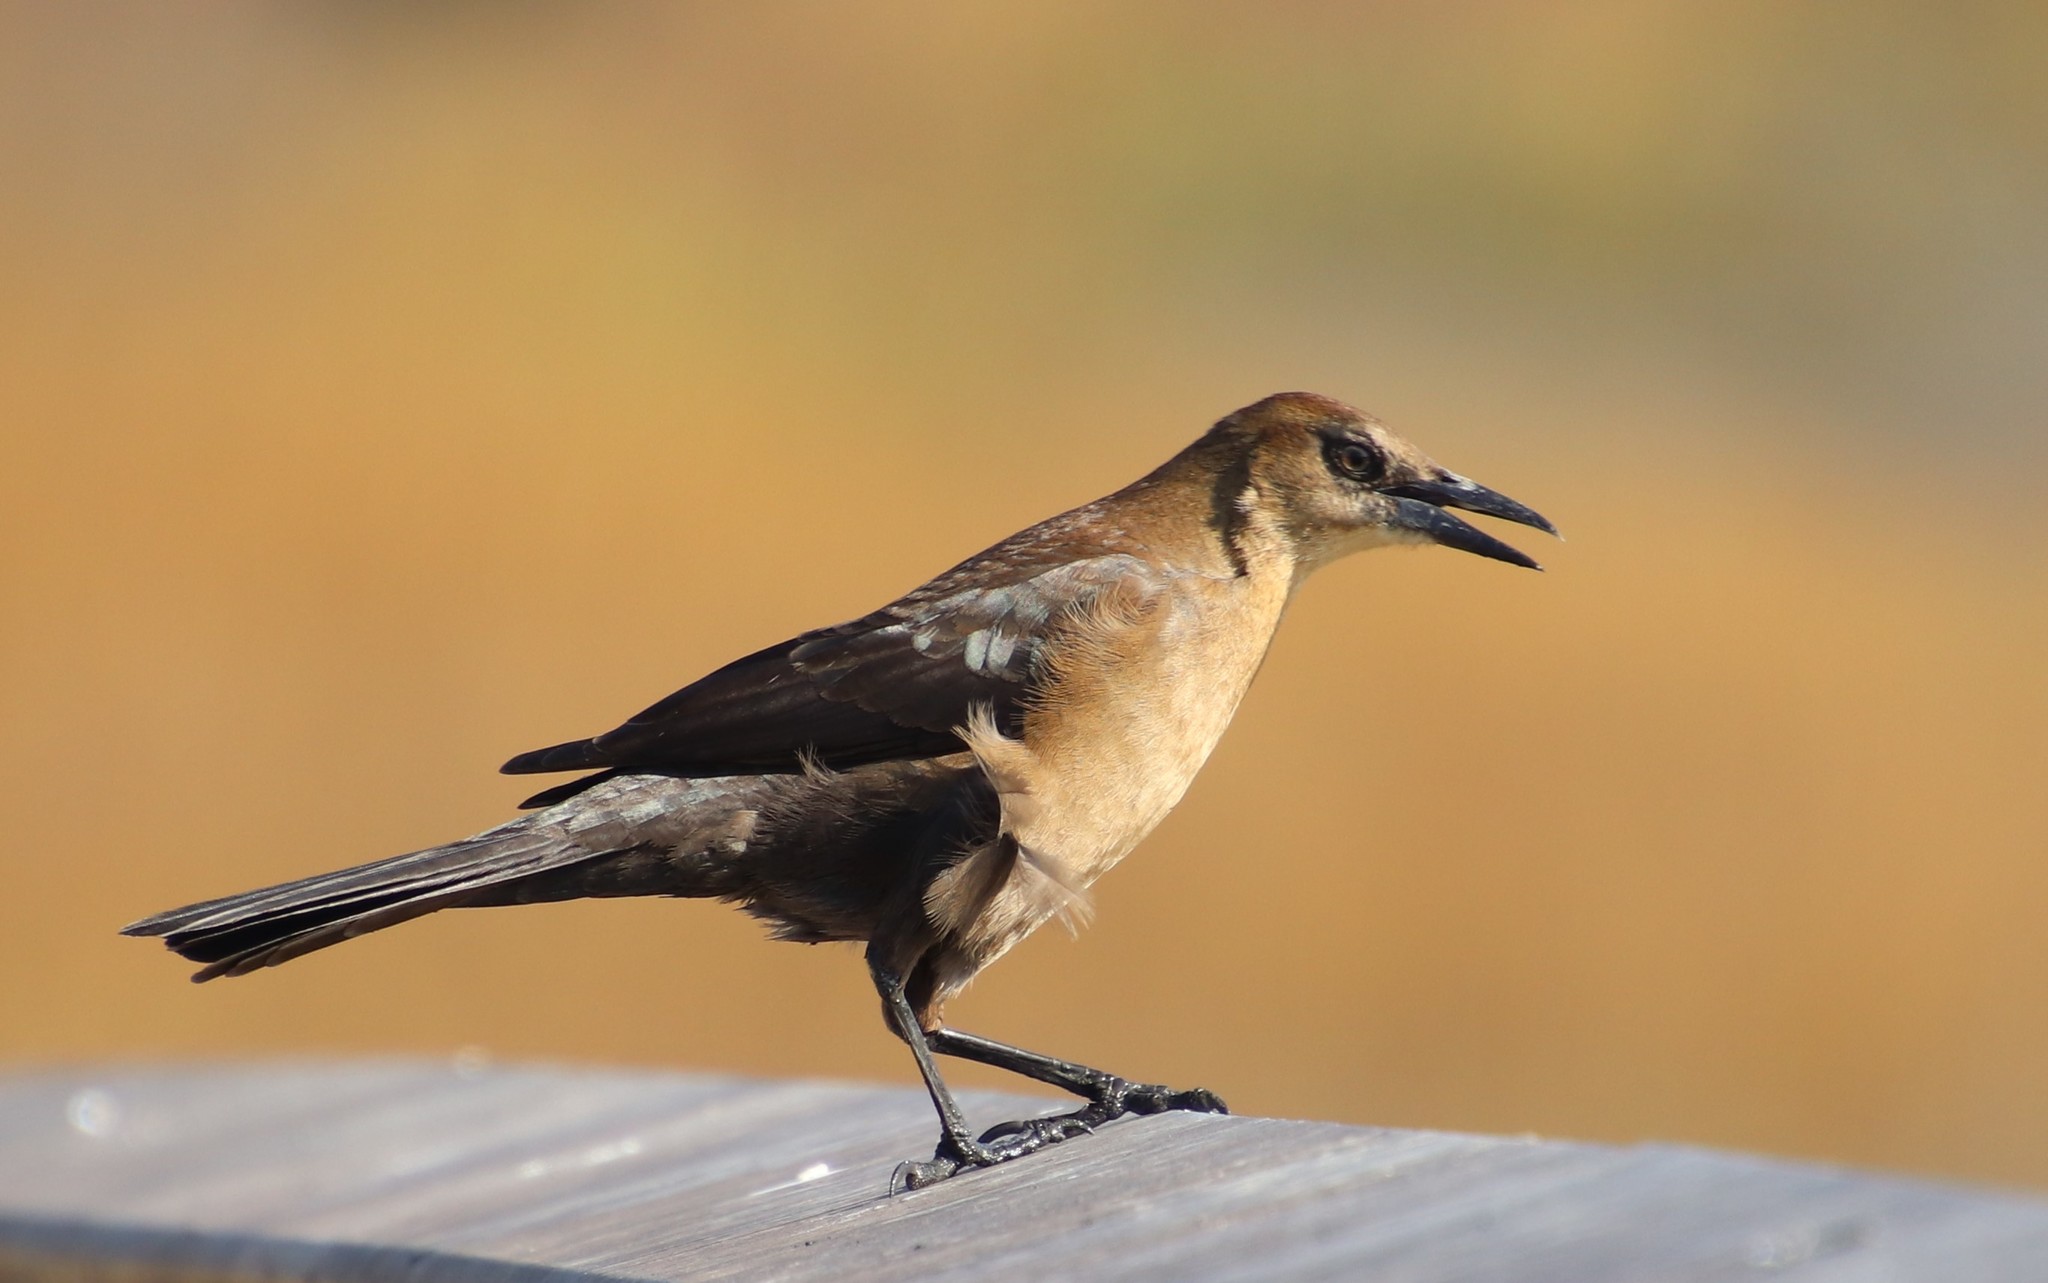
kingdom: Animalia
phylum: Chordata
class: Aves
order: Passeriformes
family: Icteridae
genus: Quiscalus
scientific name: Quiscalus mexicanus
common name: Great-tailed grackle
